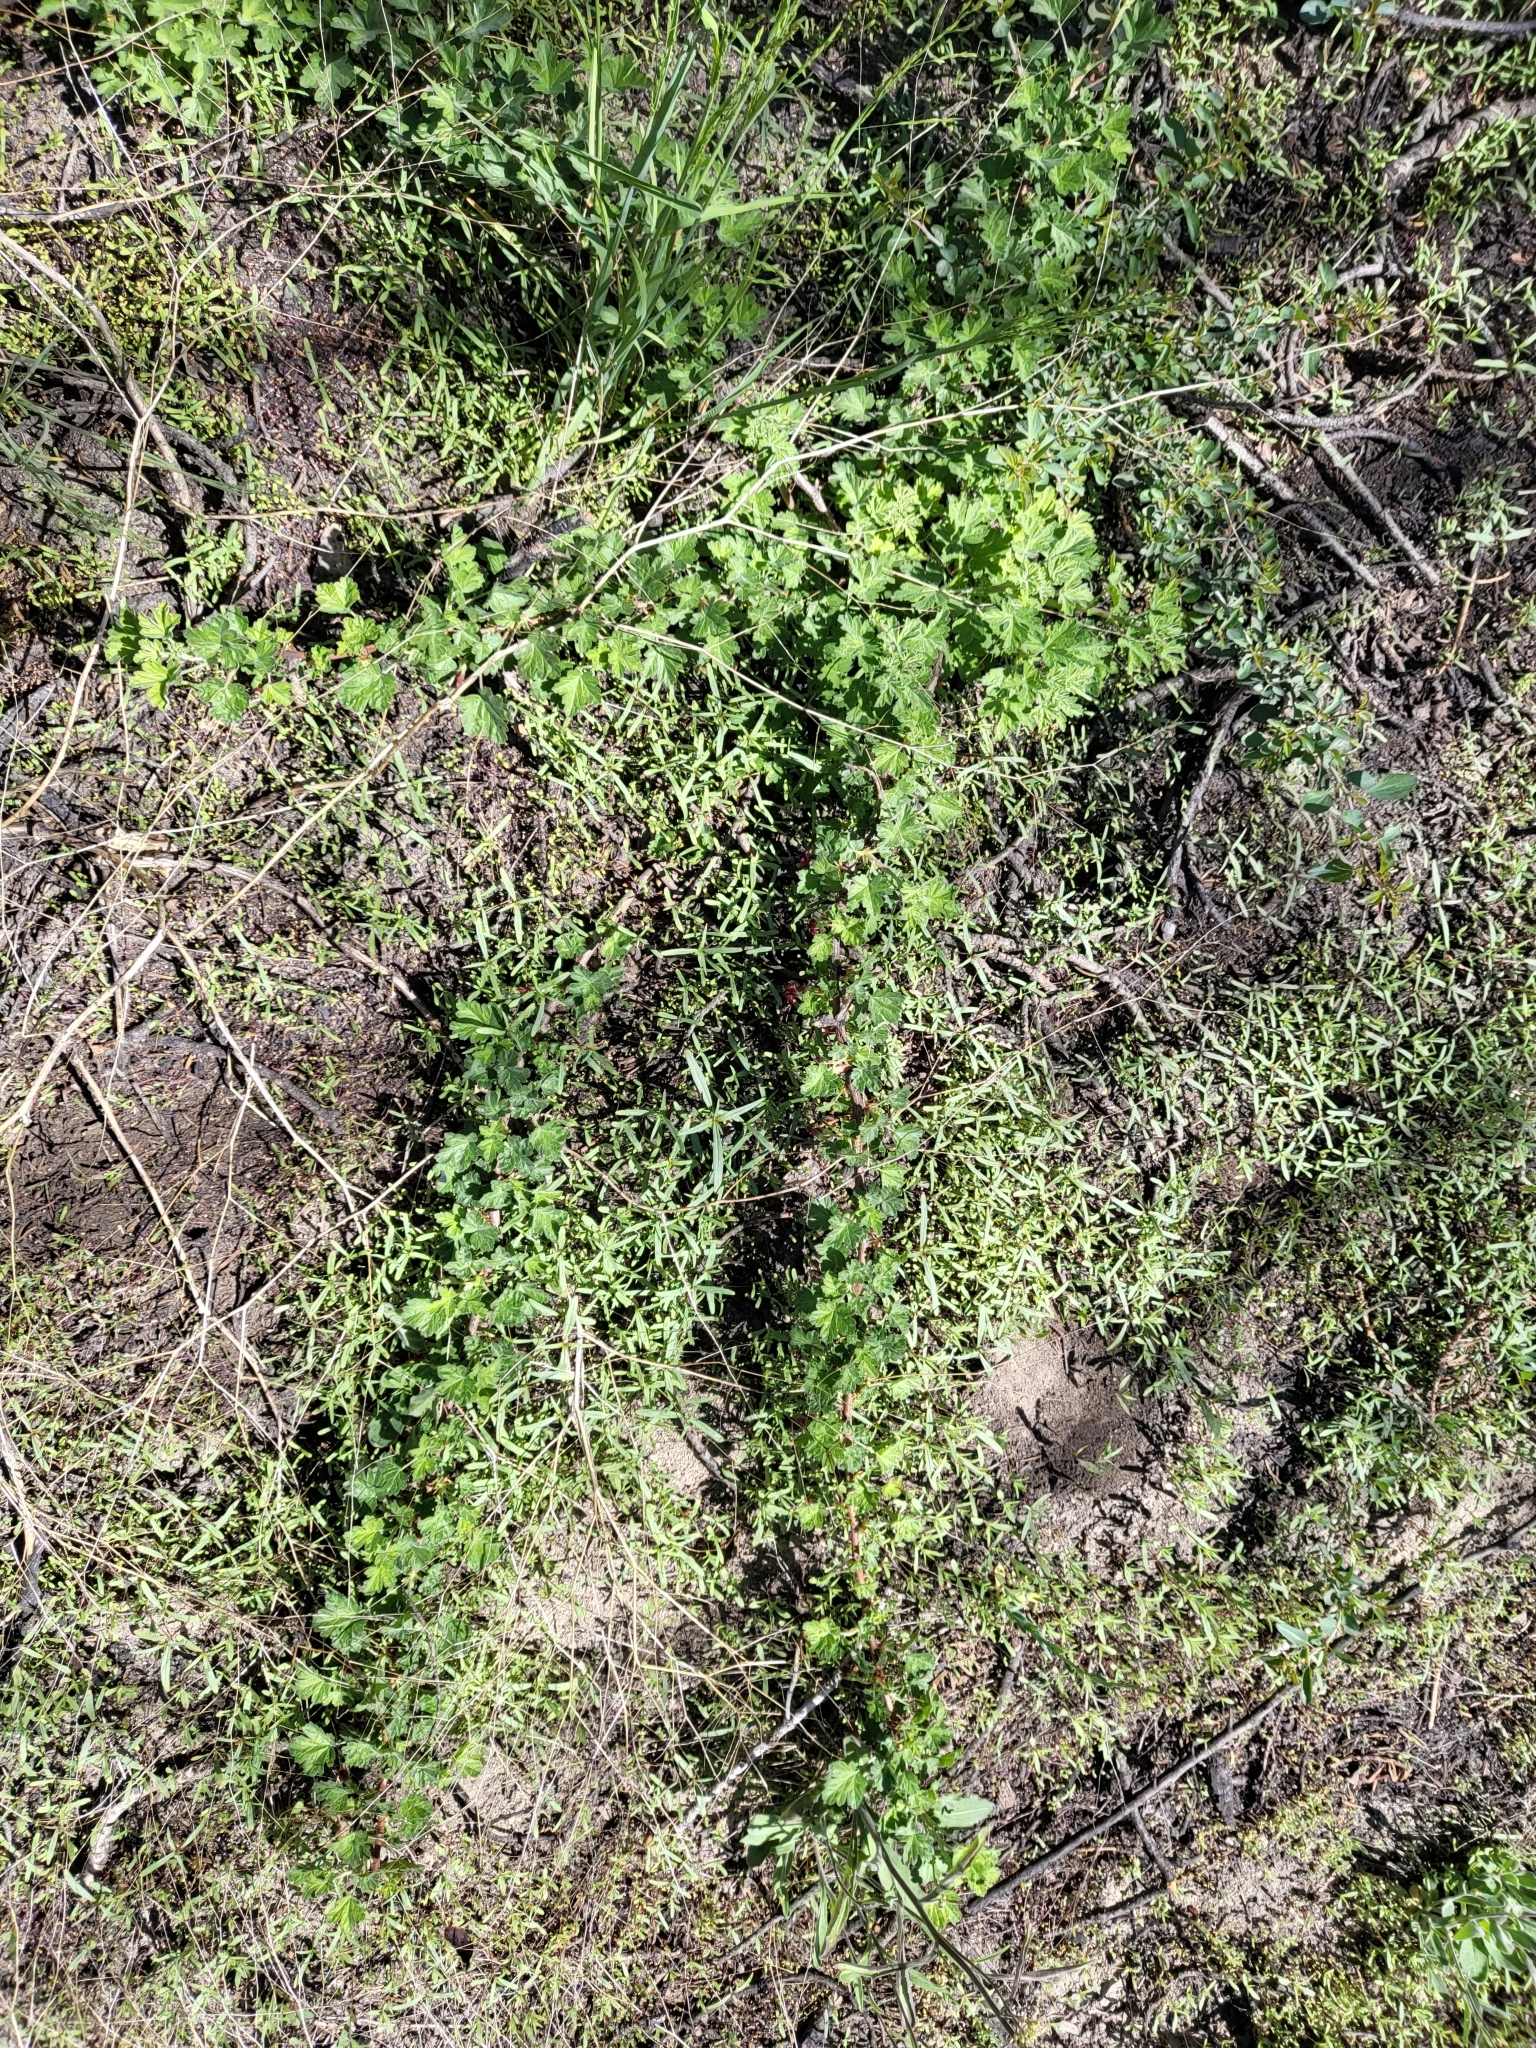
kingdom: Plantae
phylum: Tracheophyta
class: Magnoliopsida
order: Saxifragales
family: Grossulariaceae
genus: Ribes
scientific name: Ribes roezlii
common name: Sierra gooseberry
